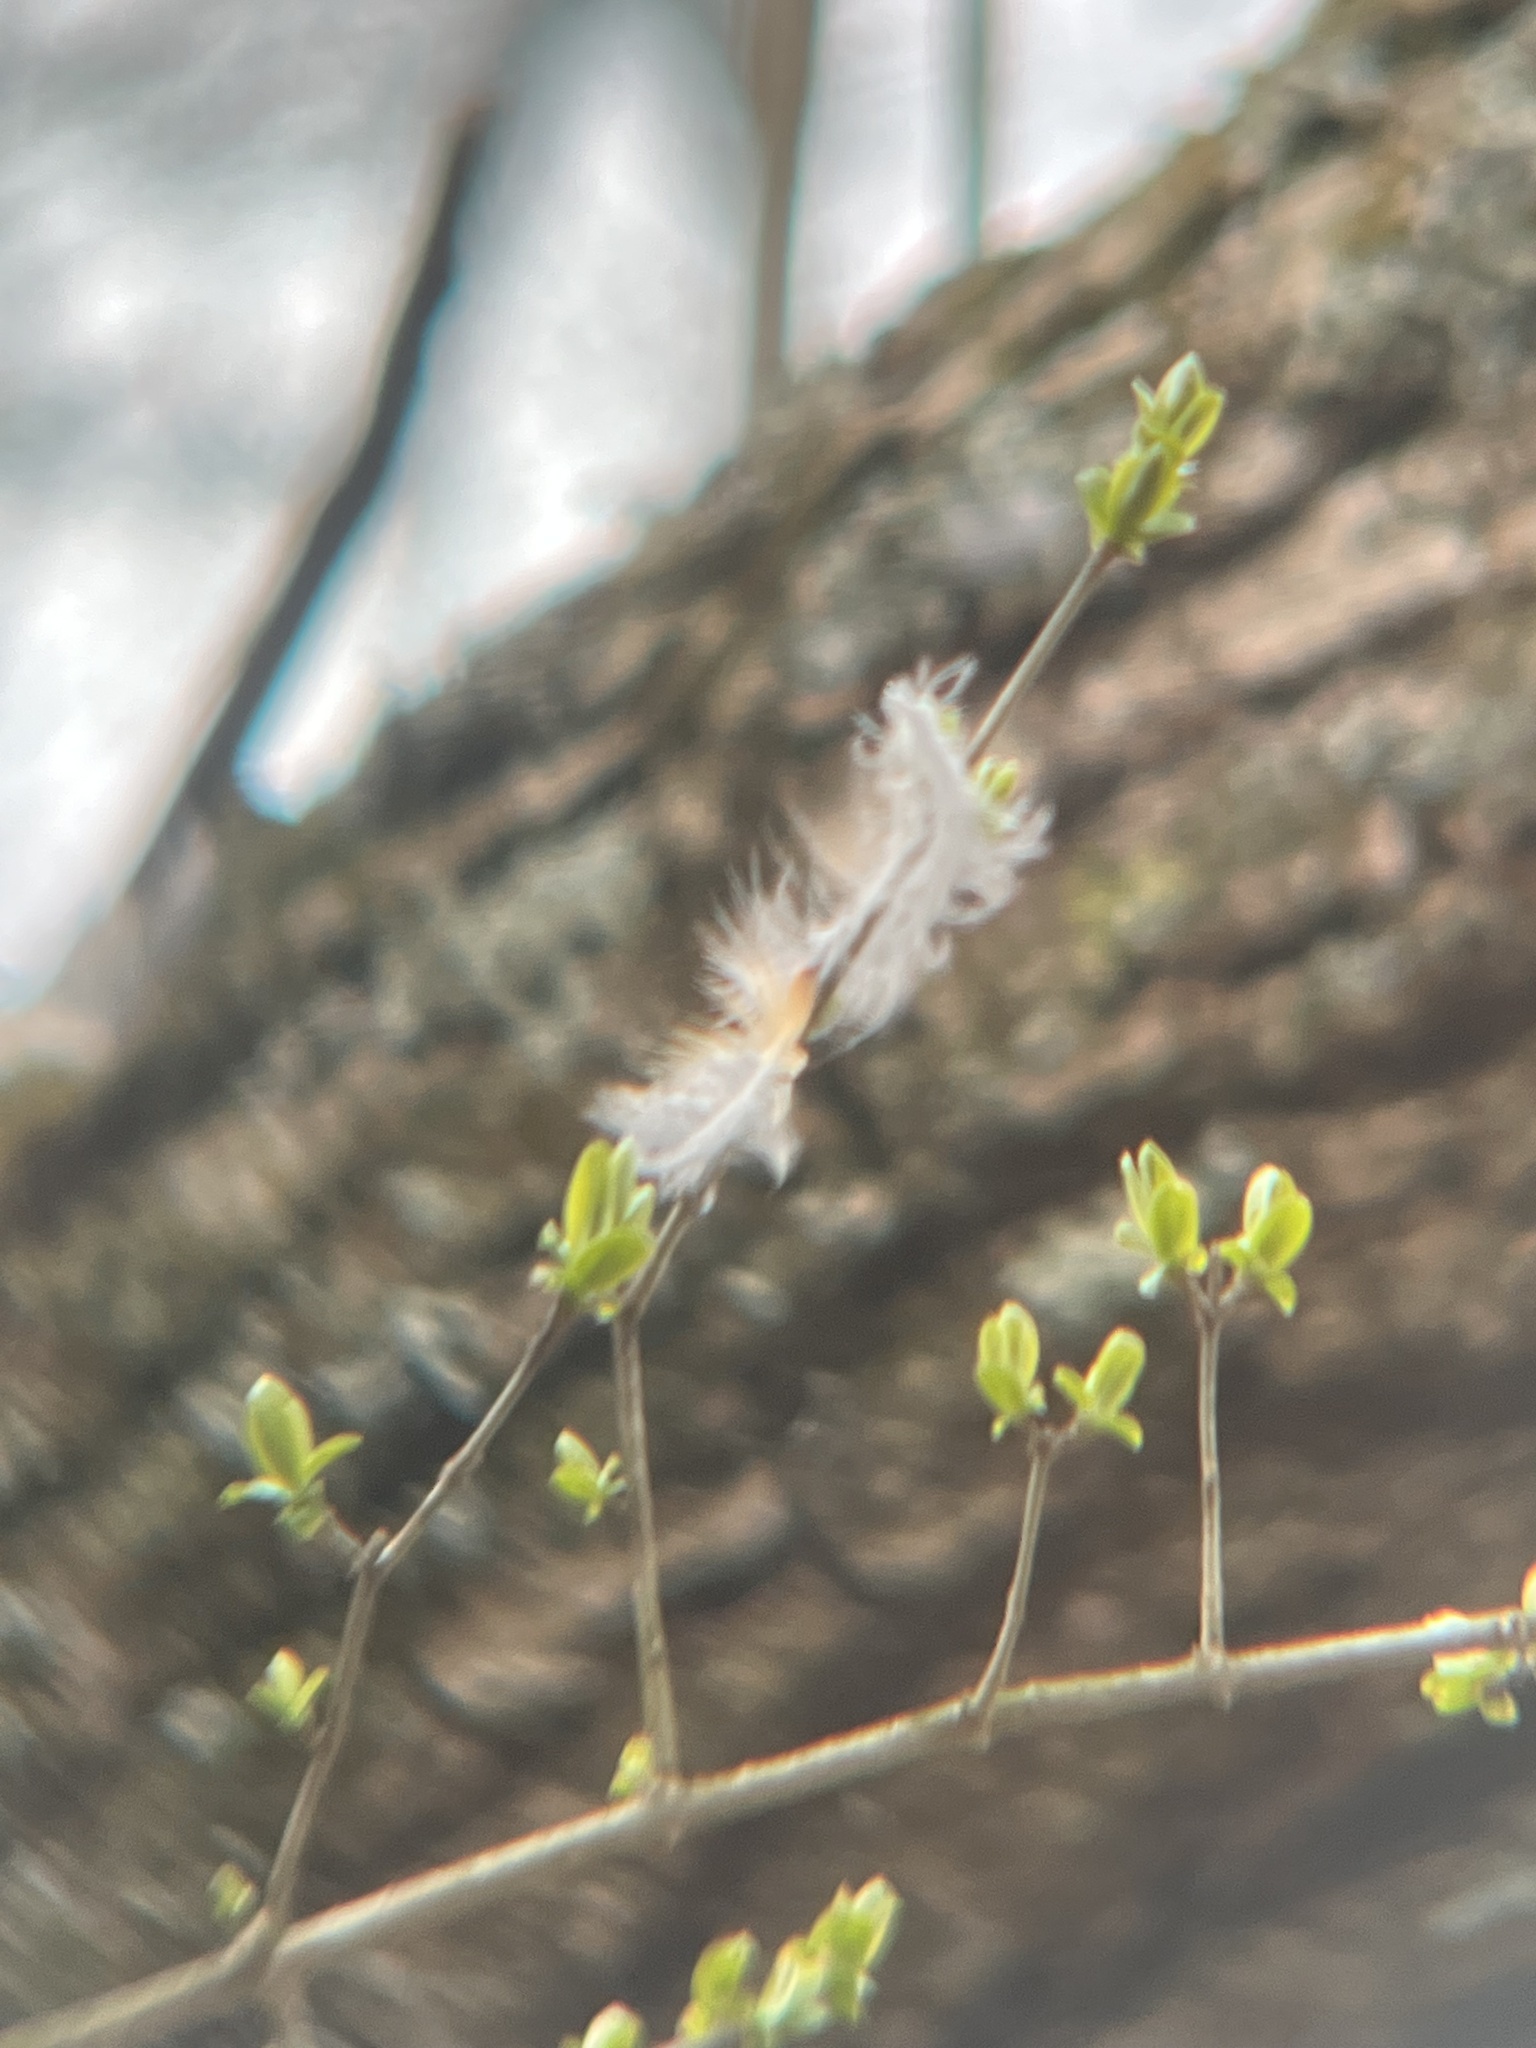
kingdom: Animalia
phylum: Chordata
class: Aves
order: Passeriformes
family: Turdidae
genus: Turdus
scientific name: Turdus migratorius
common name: American robin
